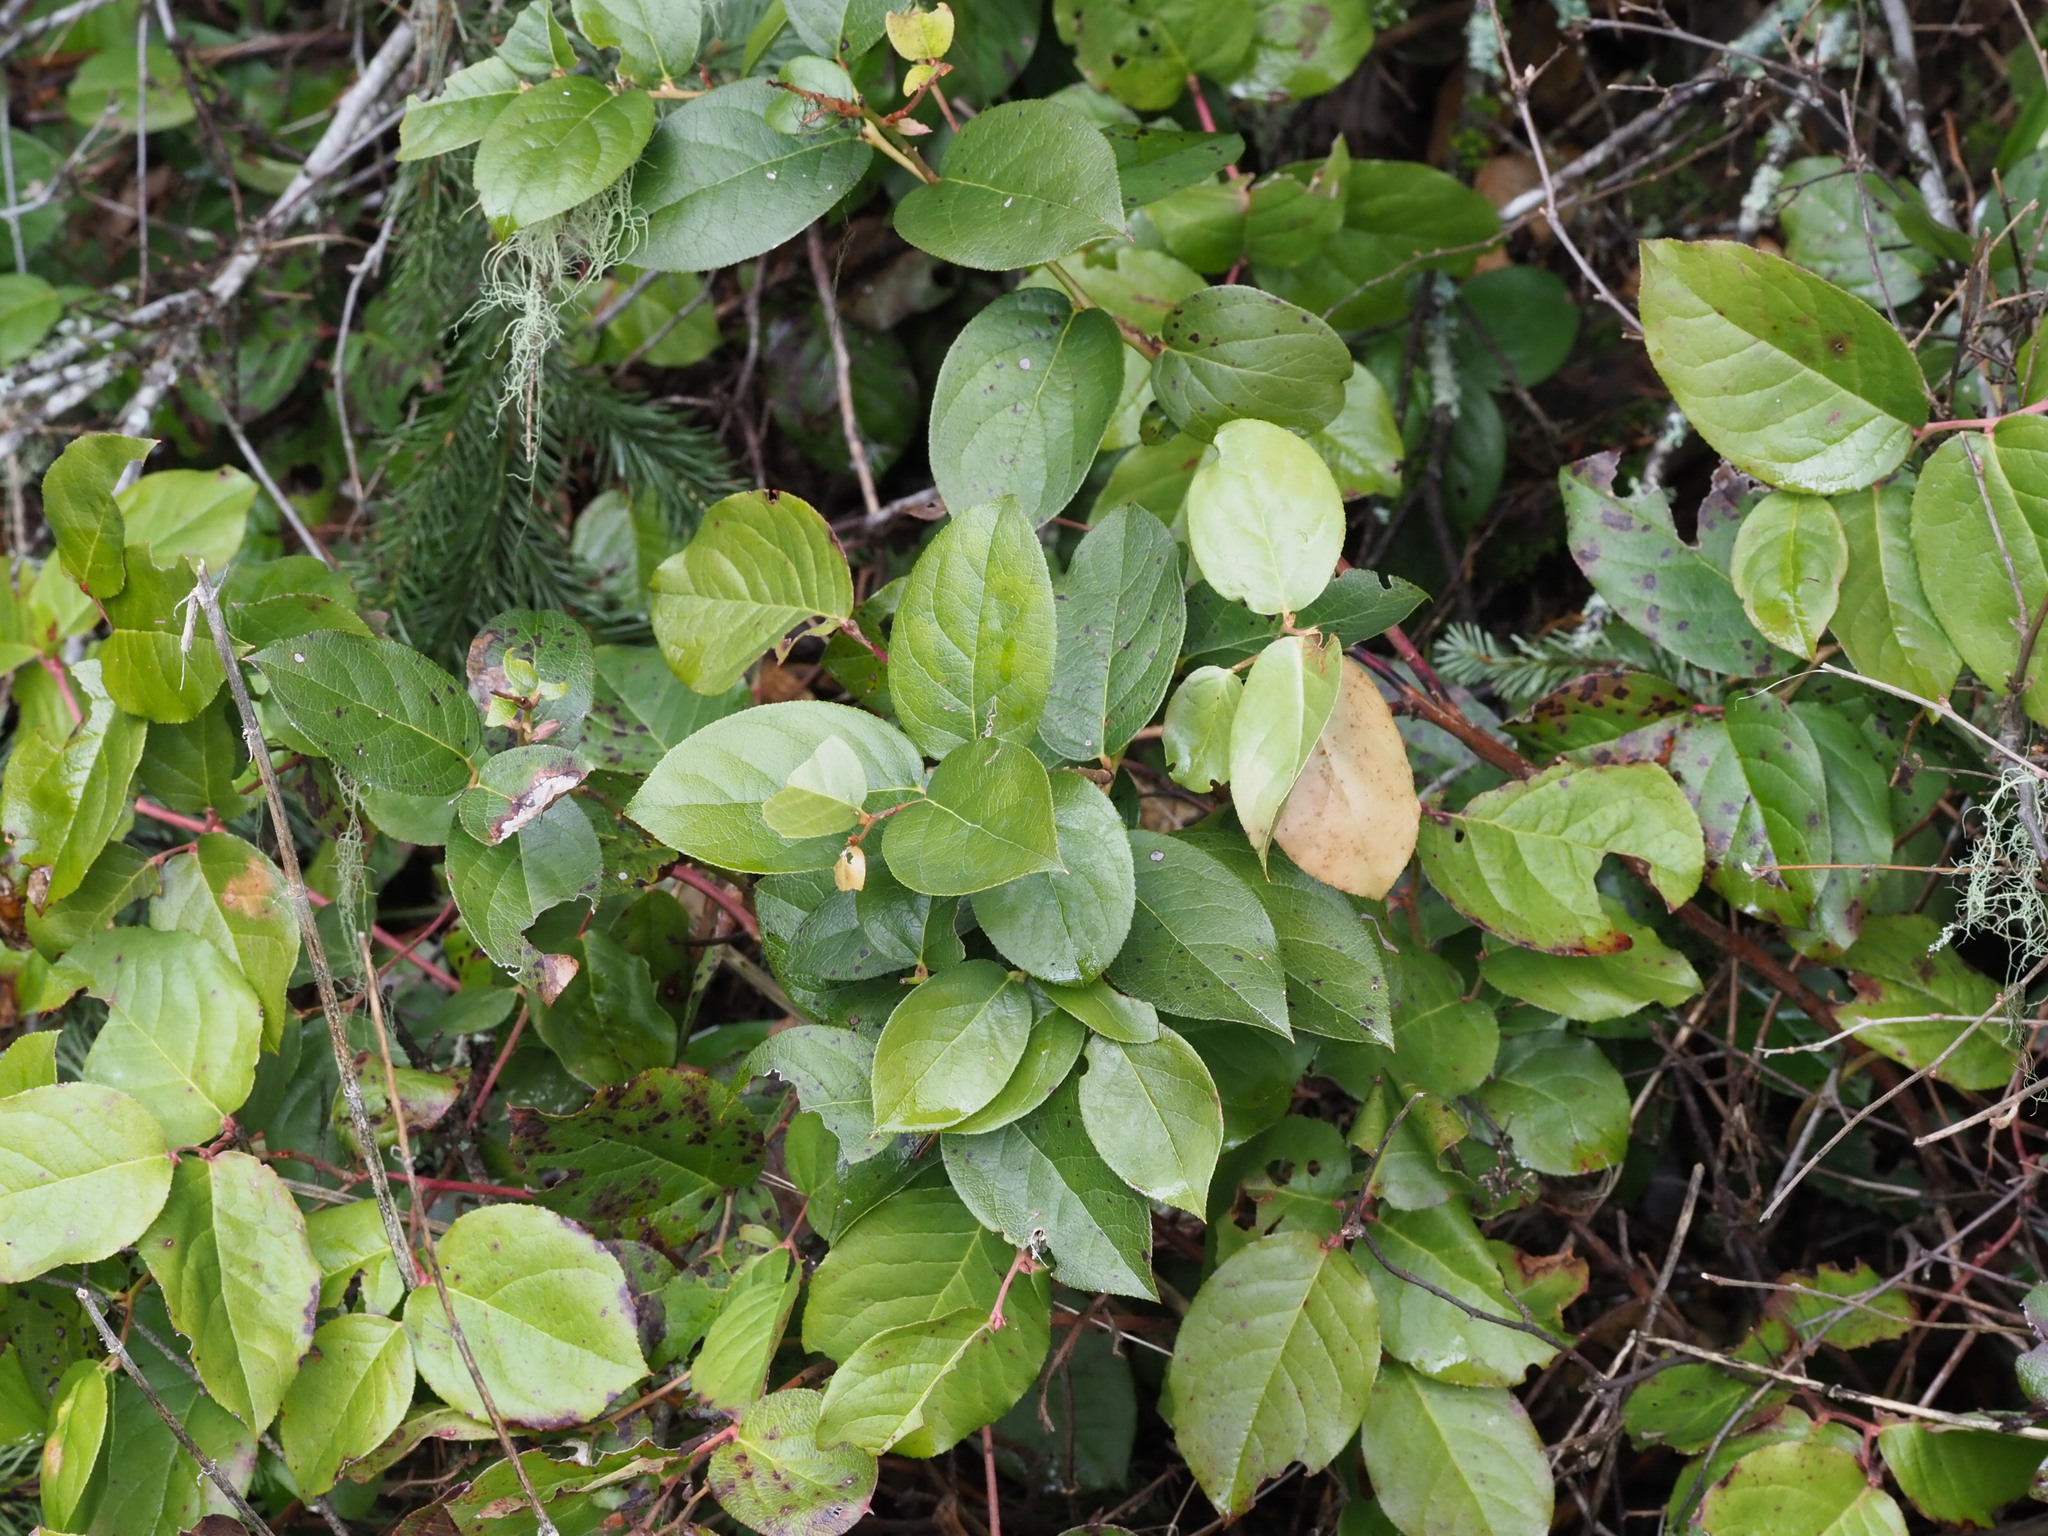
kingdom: Plantae
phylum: Tracheophyta
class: Magnoliopsida
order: Ericales
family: Ericaceae
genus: Gaultheria
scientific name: Gaultheria shallon
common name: Shallon
